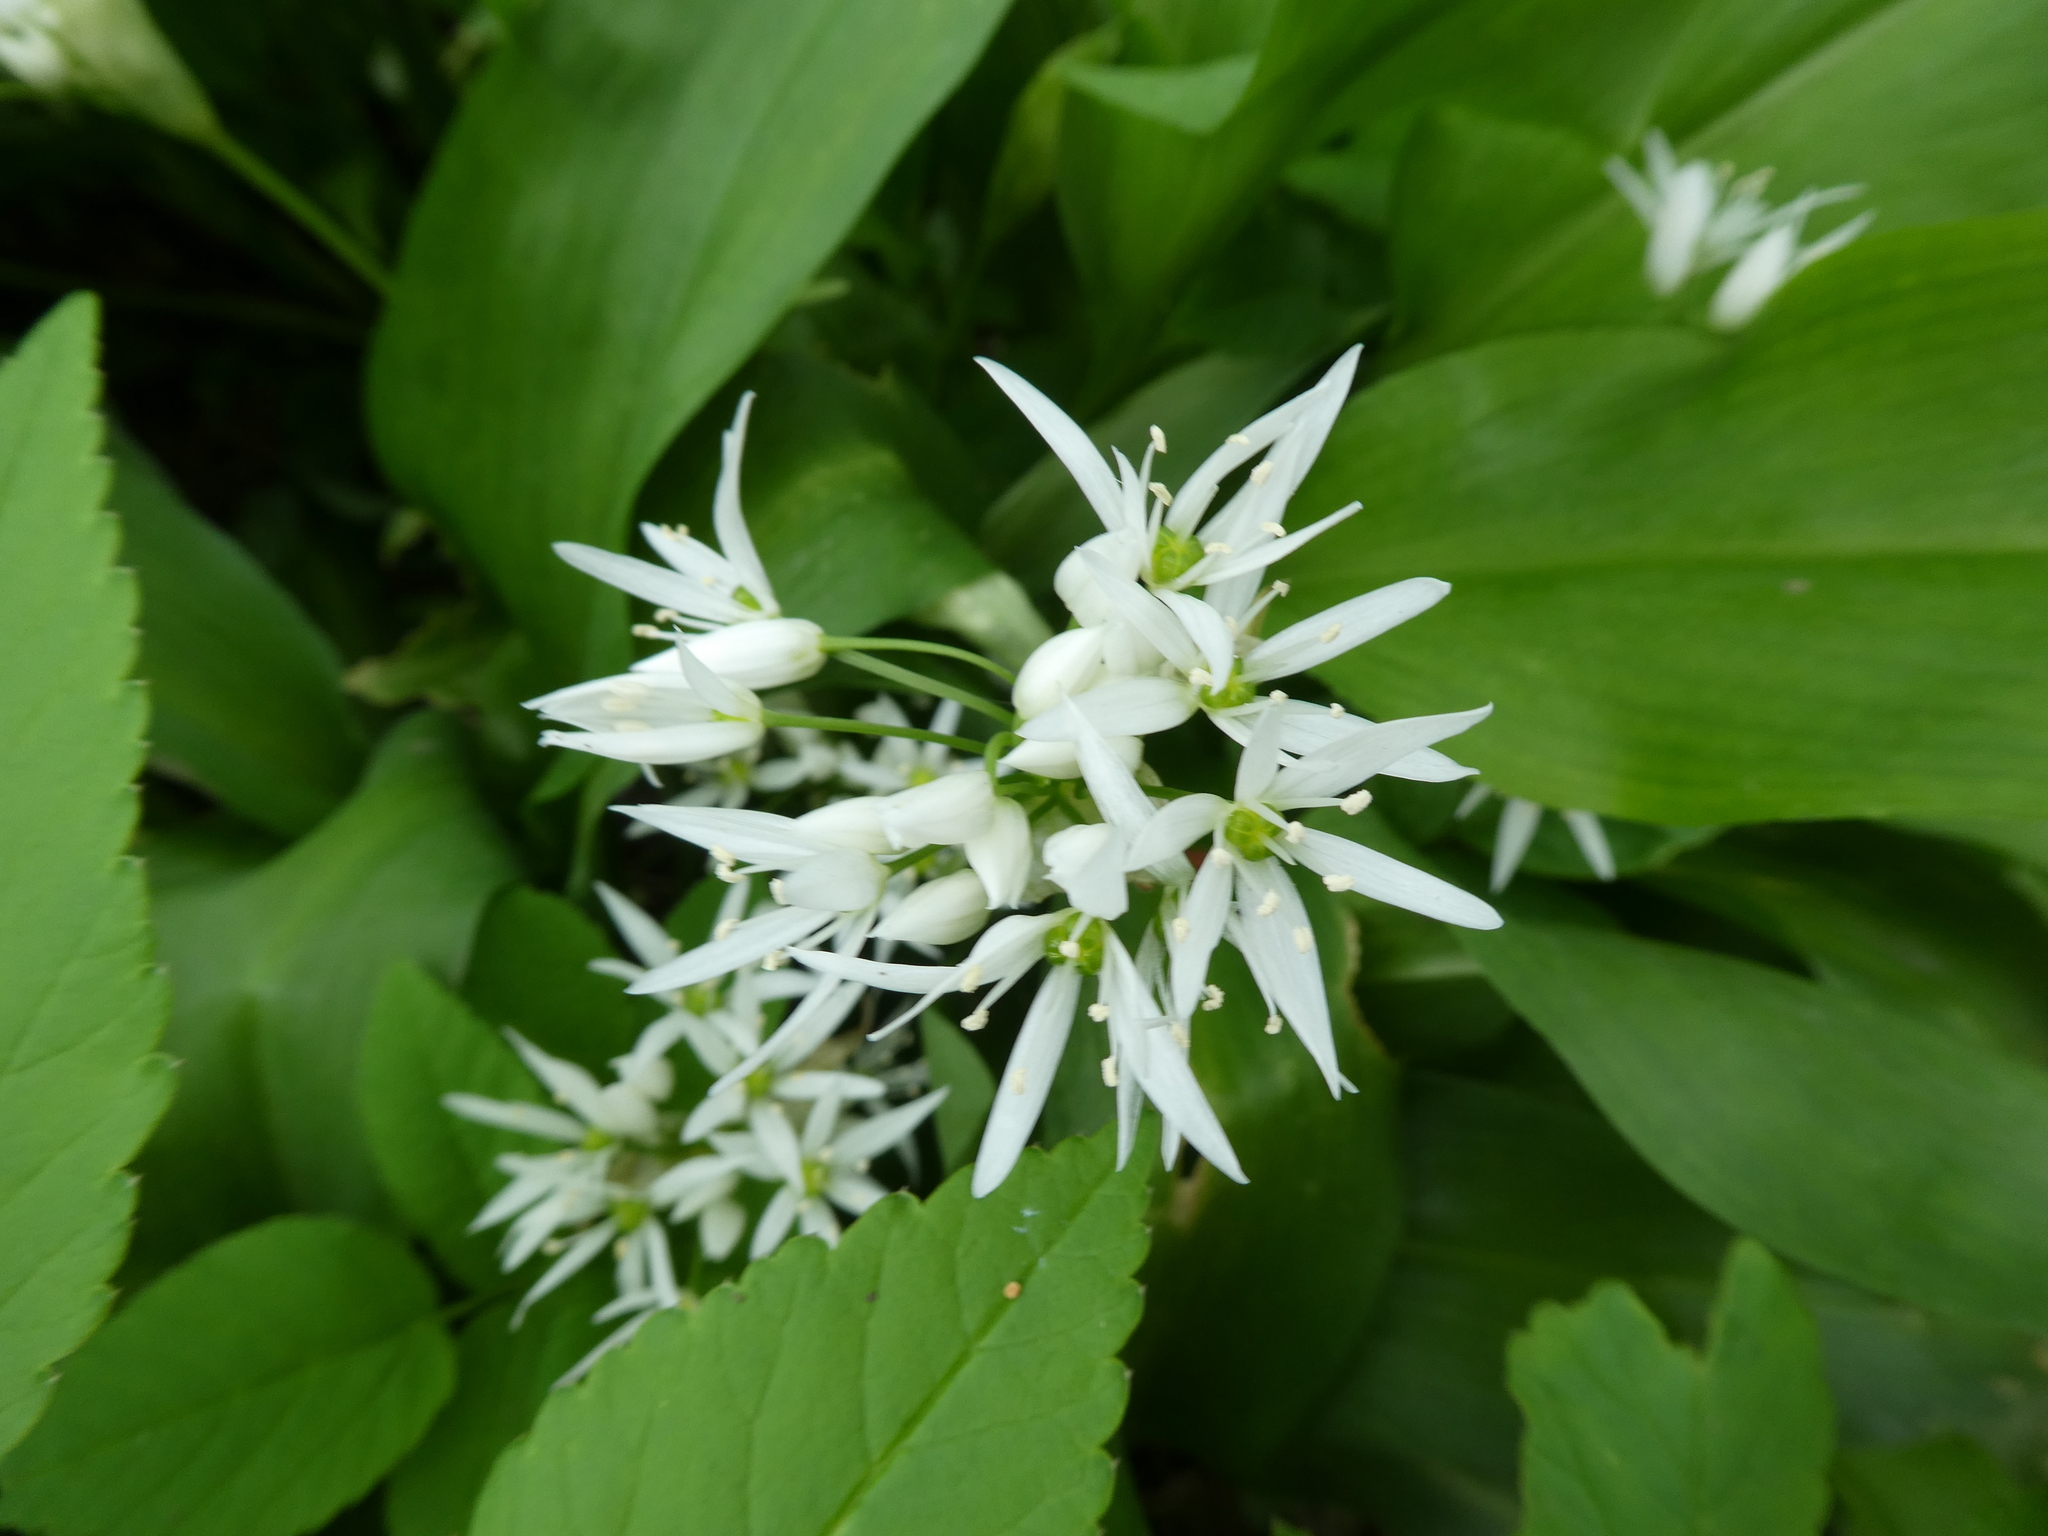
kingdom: Plantae
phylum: Tracheophyta
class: Liliopsida
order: Asparagales
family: Amaryllidaceae
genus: Allium
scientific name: Allium ursinum
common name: Ramsons
